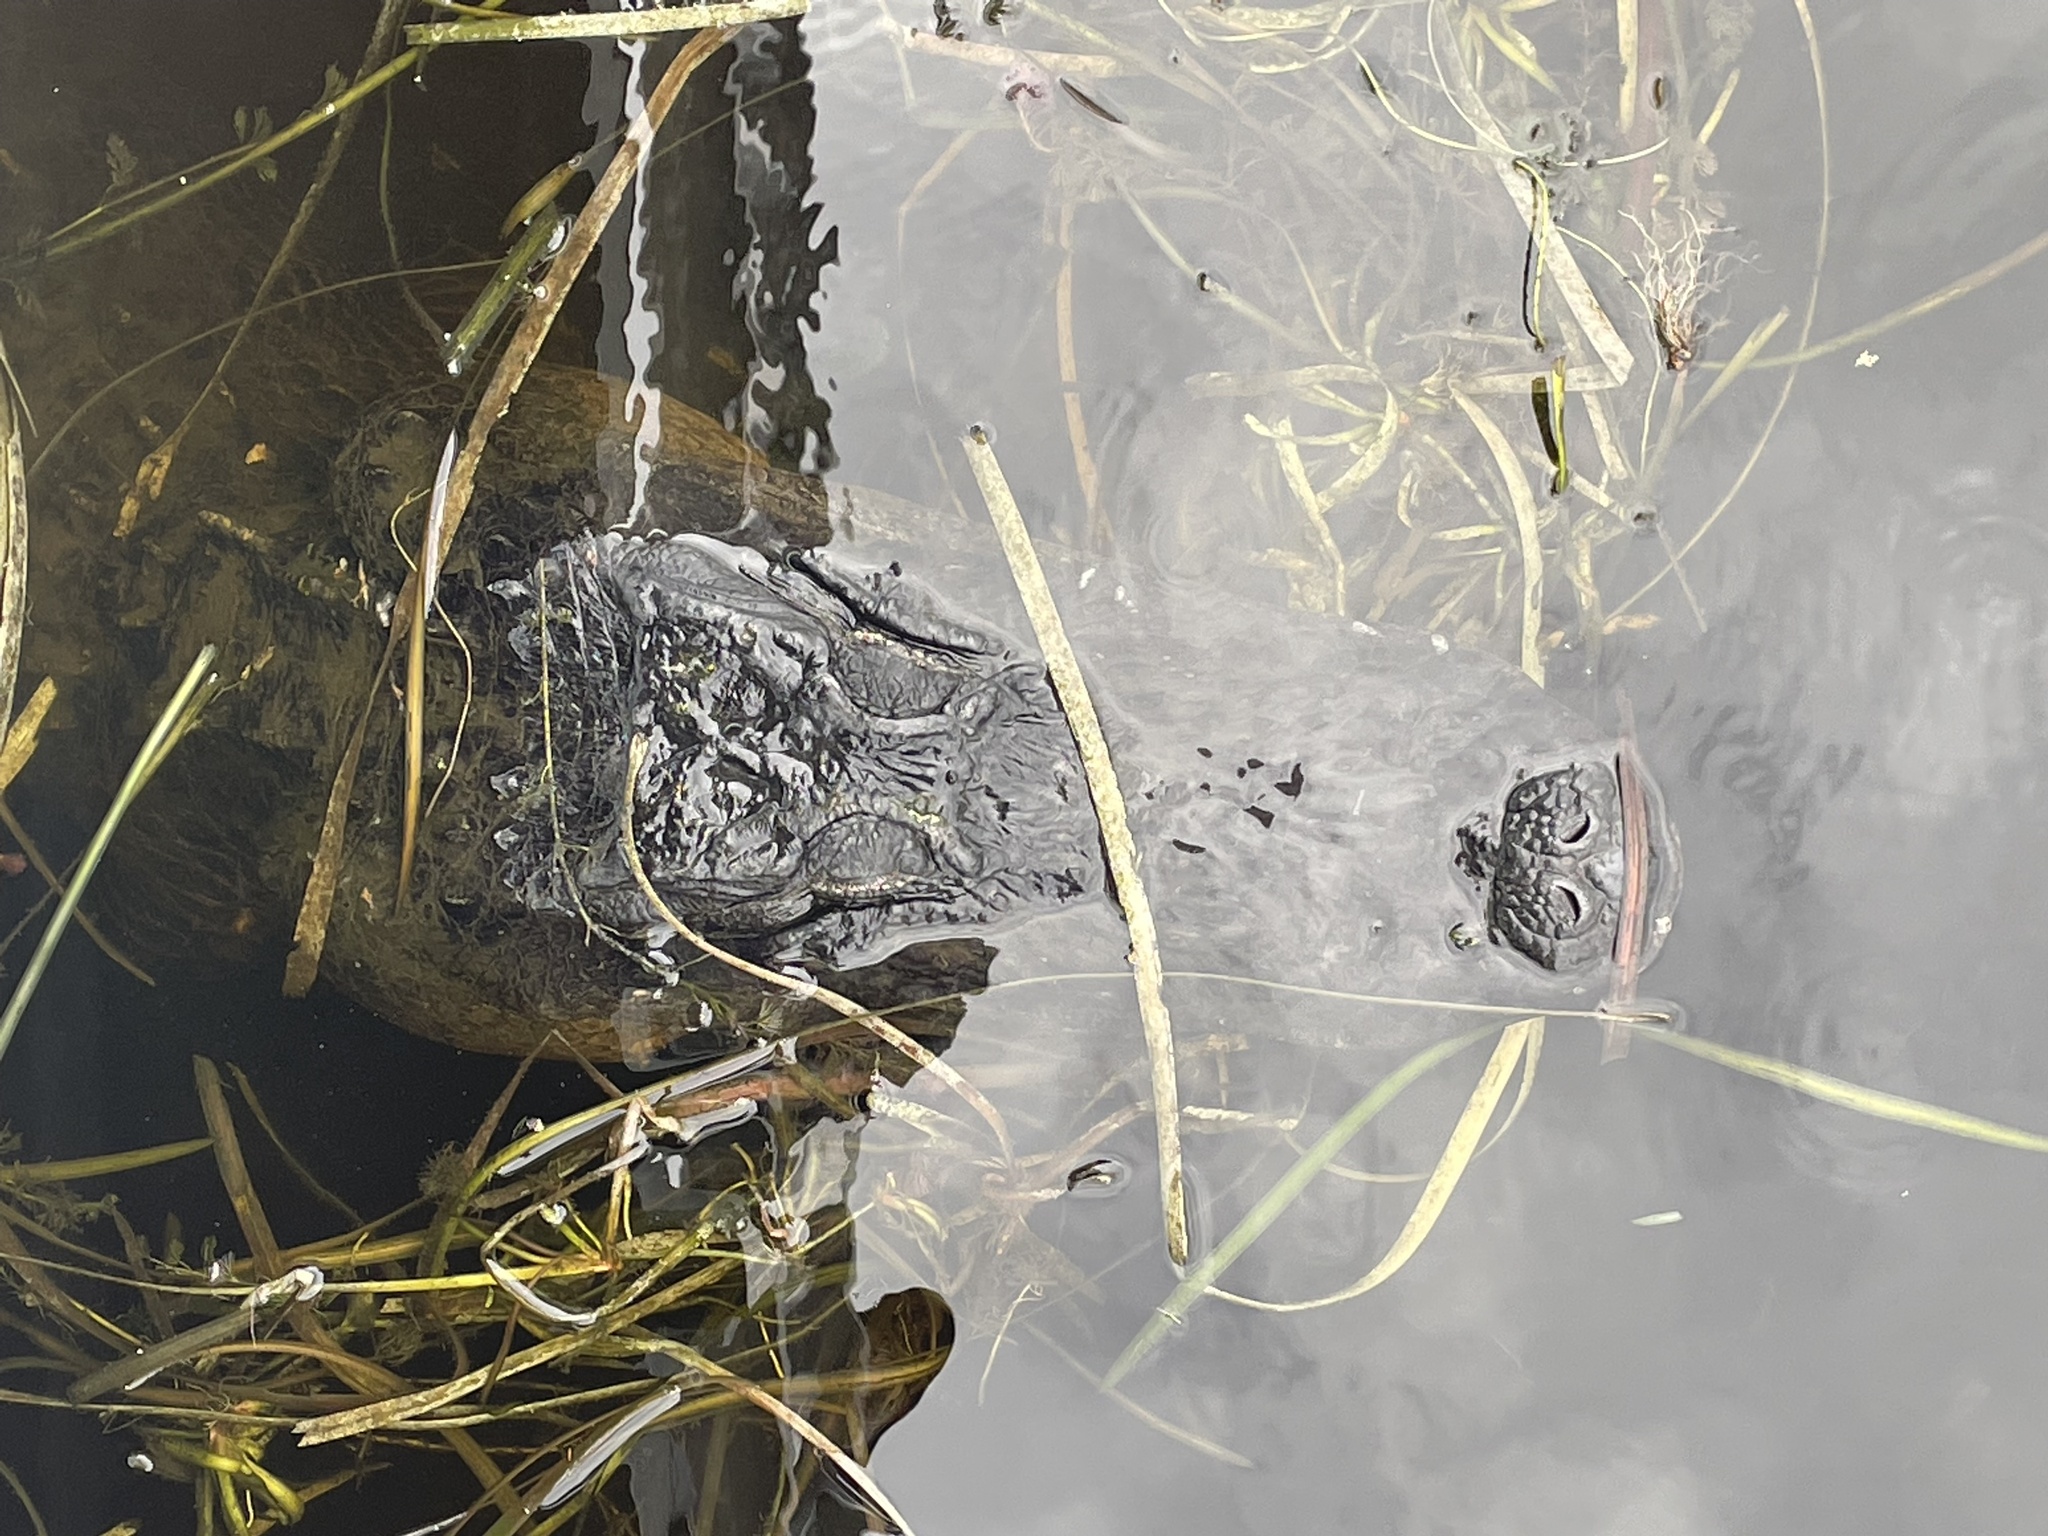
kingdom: Animalia
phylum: Chordata
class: Crocodylia
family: Alligatoridae
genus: Alligator
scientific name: Alligator mississippiensis
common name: American alligator
